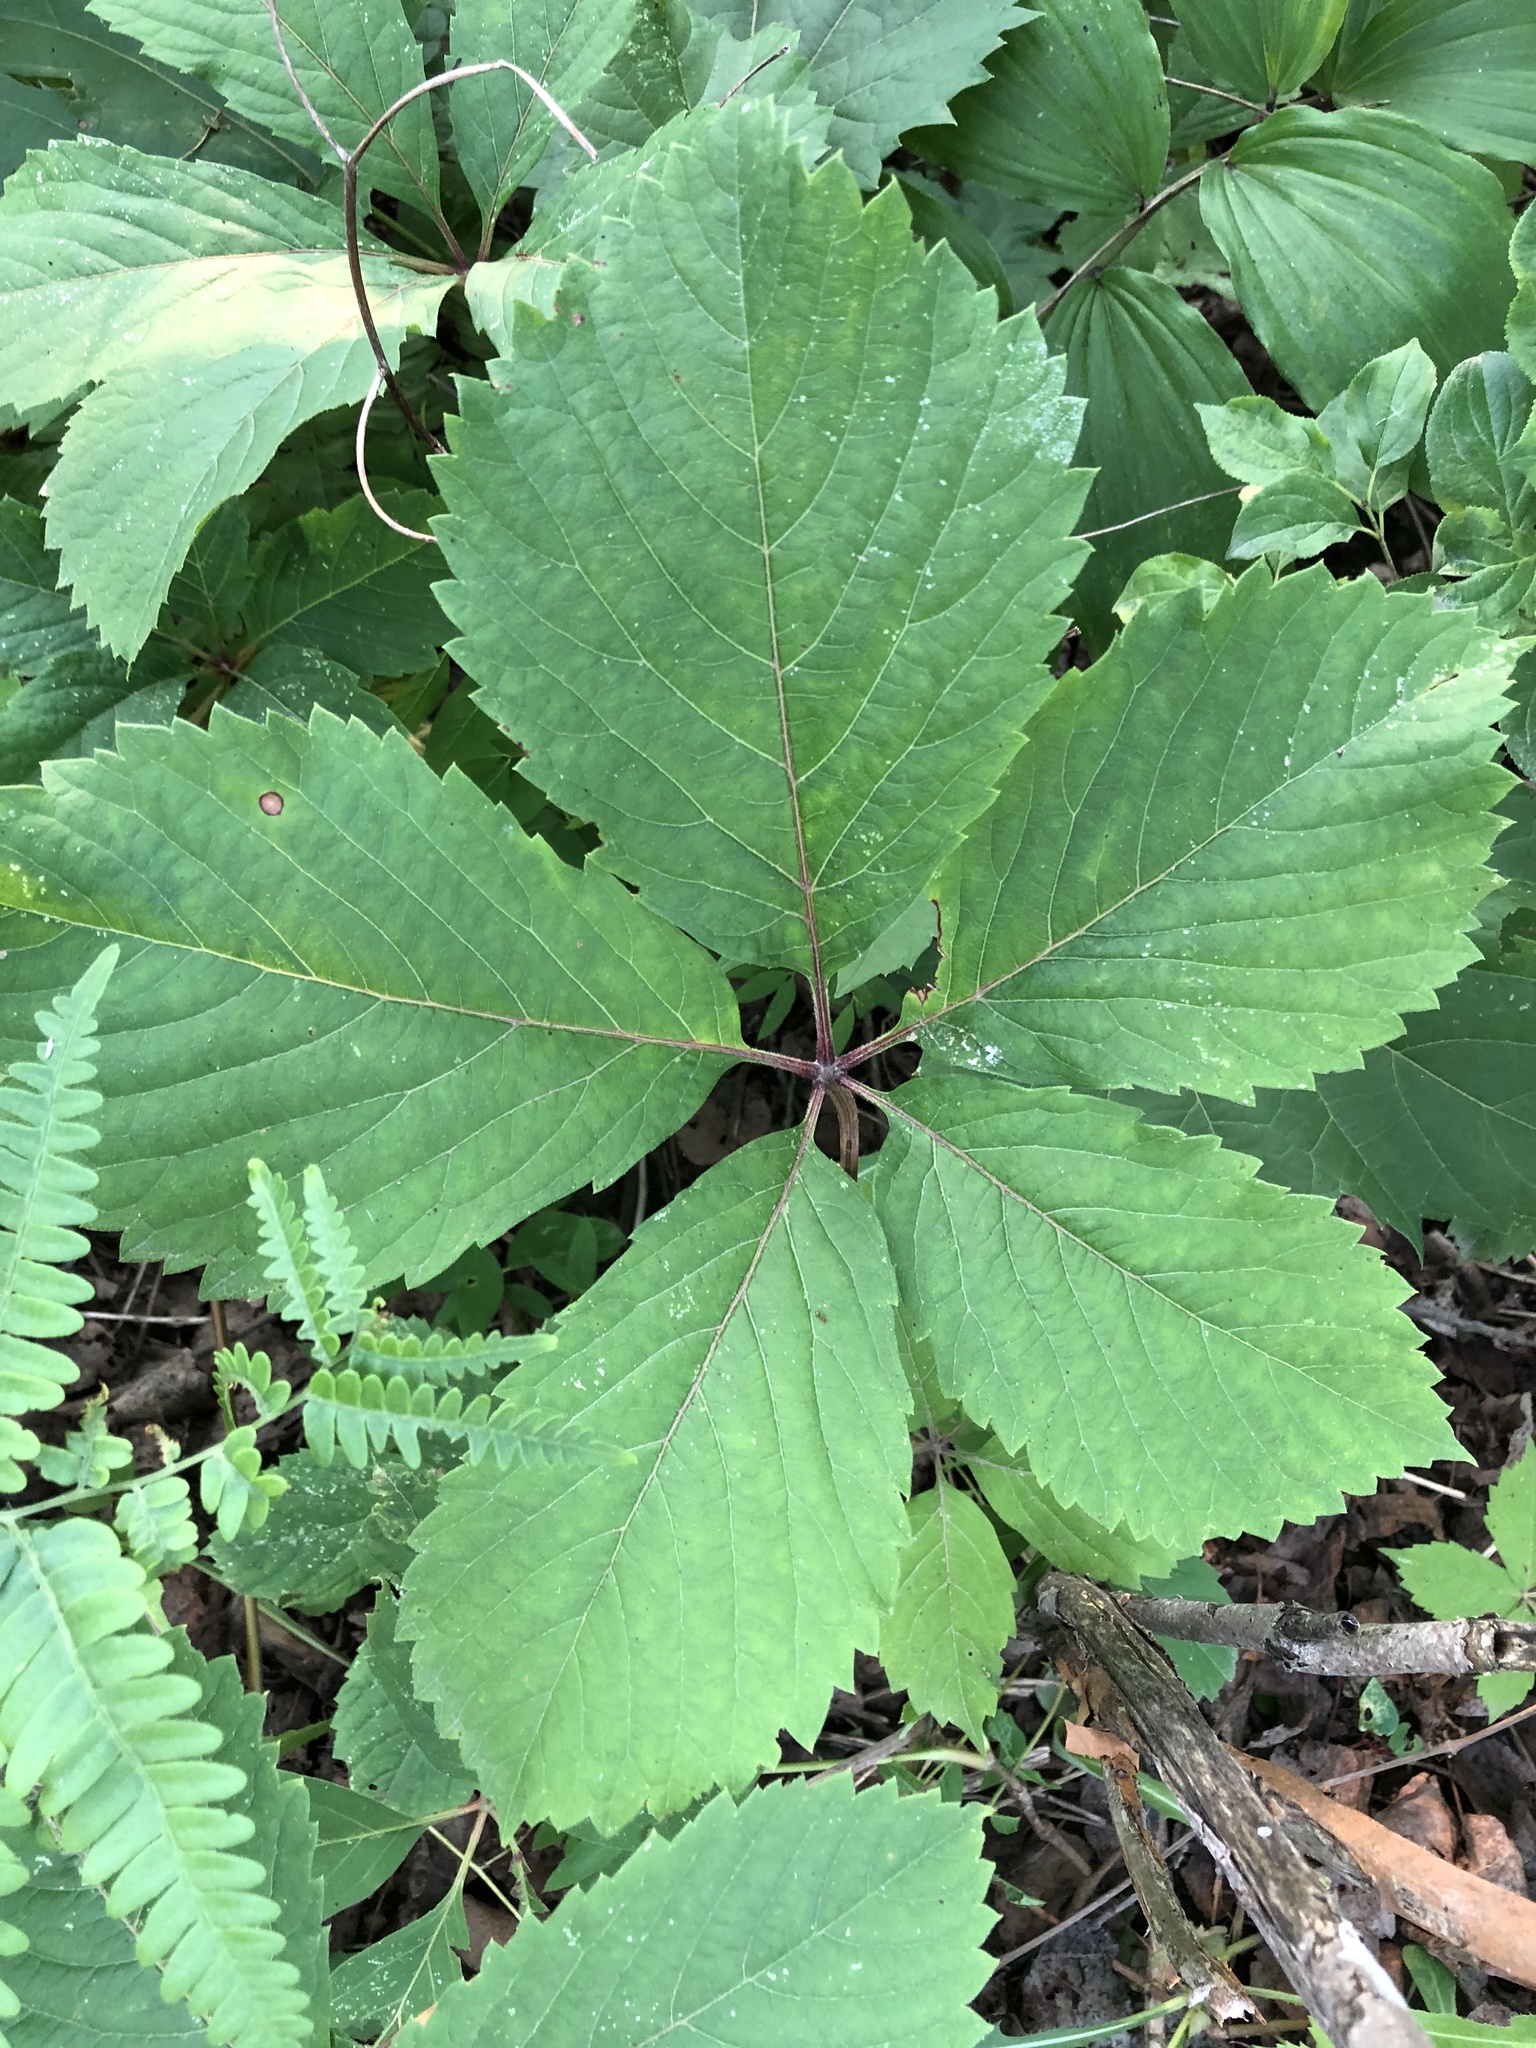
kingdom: Plantae
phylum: Tracheophyta
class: Magnoliopsida
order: Vitales
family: Vitaceae
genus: Parthenocissus
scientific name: Parthenocissus inserta
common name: False virginia-creeper
